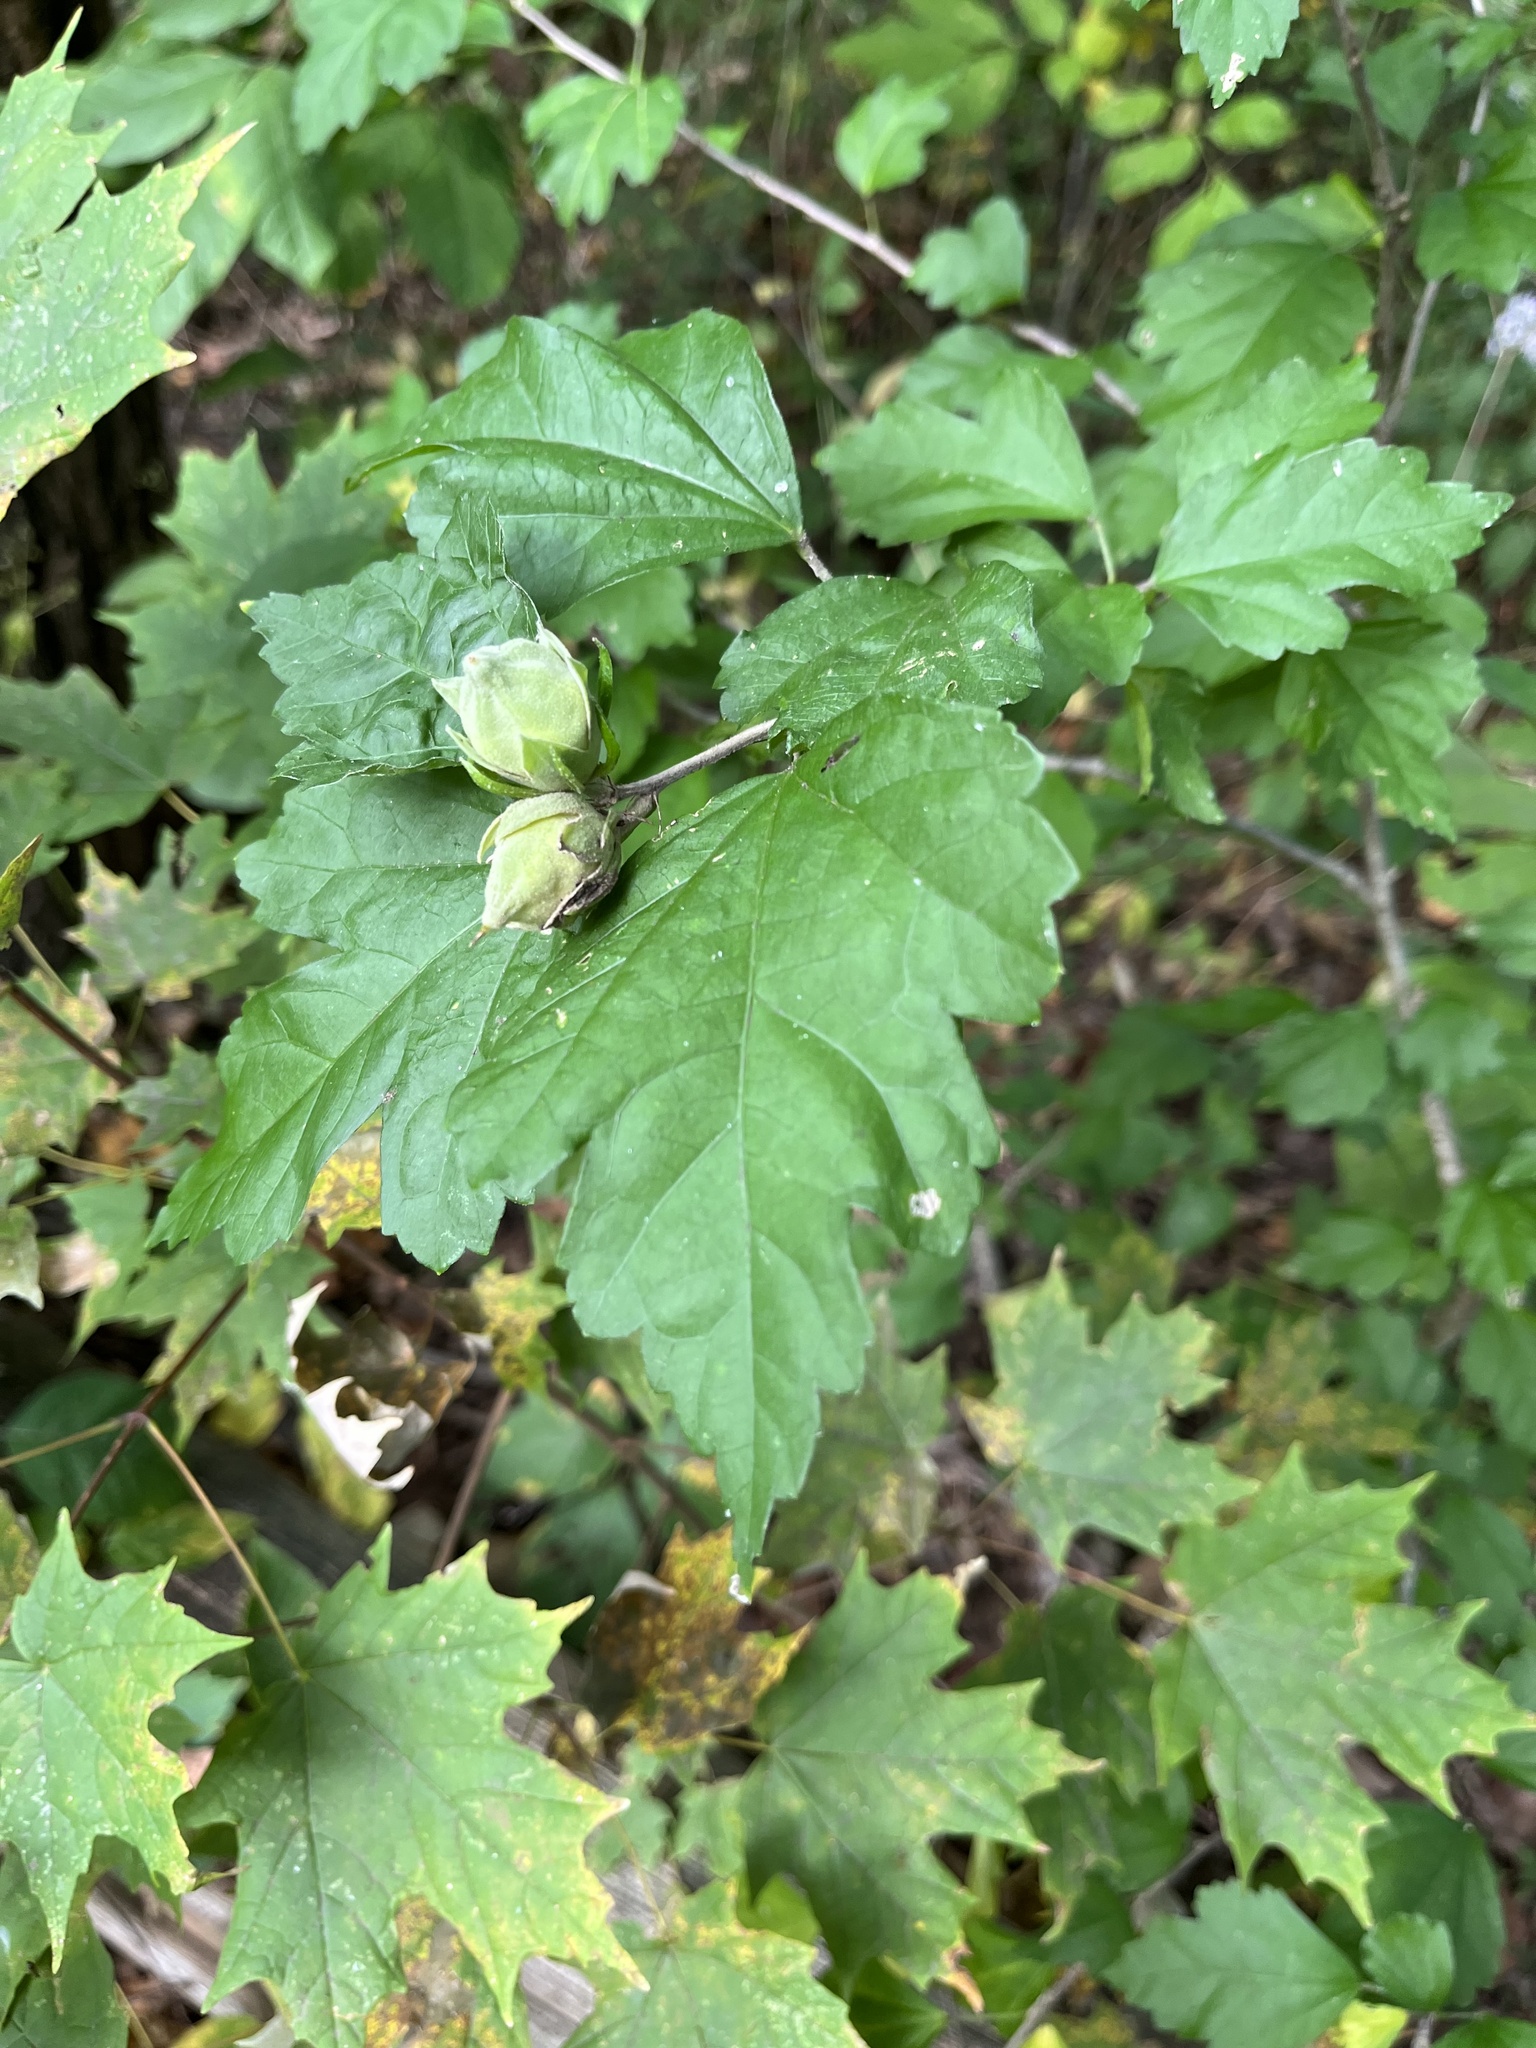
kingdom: Plantae
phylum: Tracheophyta
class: Magnoliopsida
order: Malvales
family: Malvaceae
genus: Hibiscus
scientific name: Hibiscus syriacus
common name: Syrian ketmia
